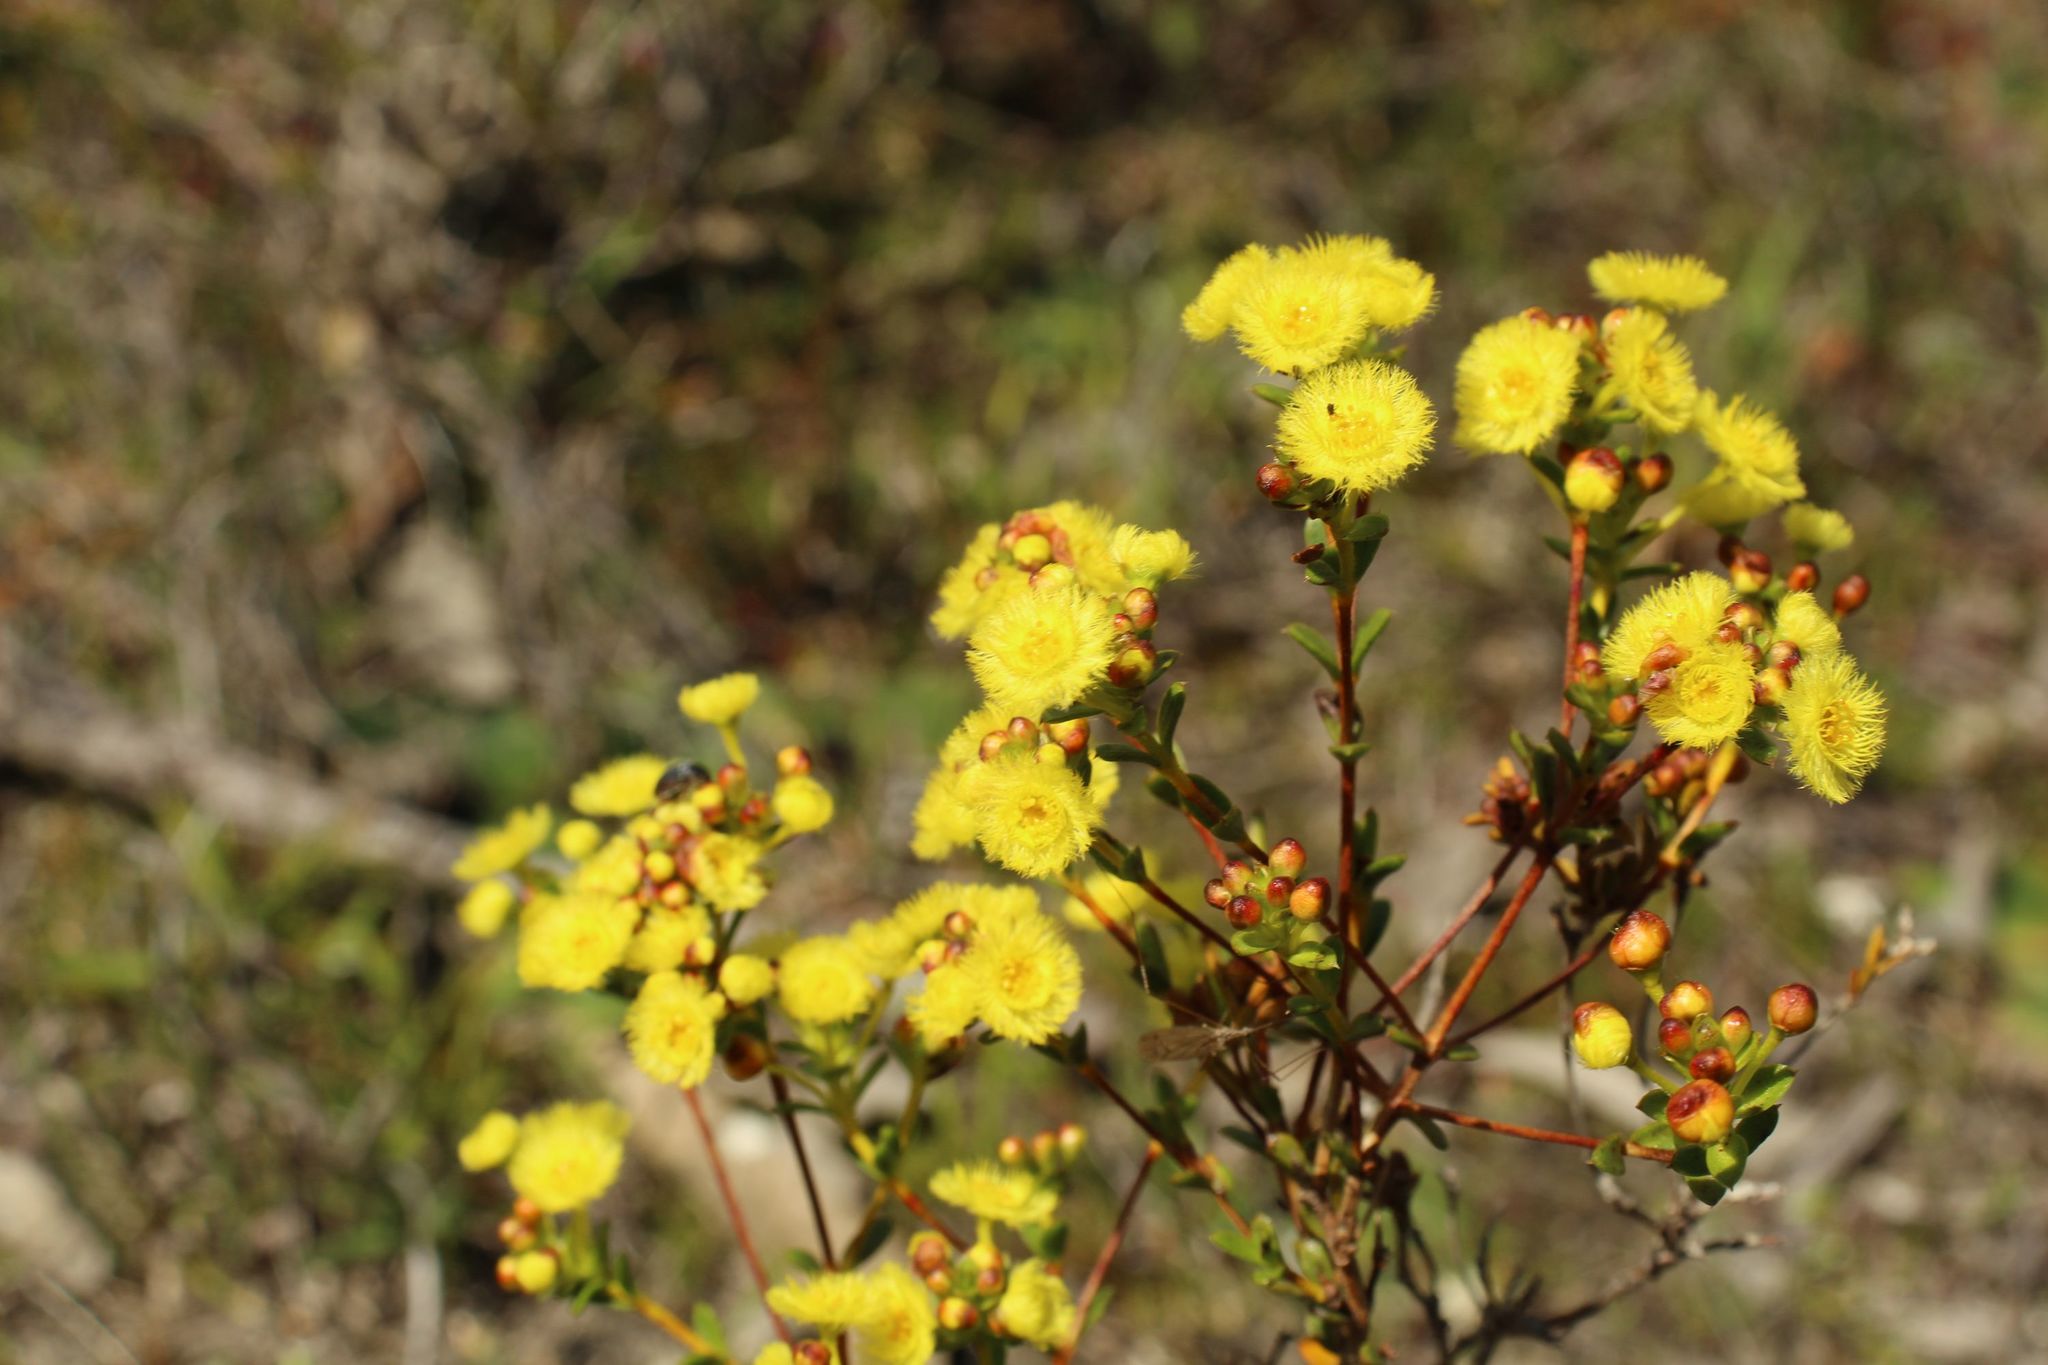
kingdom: Plantae
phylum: Tracheophyta
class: Magnoliopsida
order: Myrtales
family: Myrtaceae
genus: Verticordia
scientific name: Verticordia subulata
